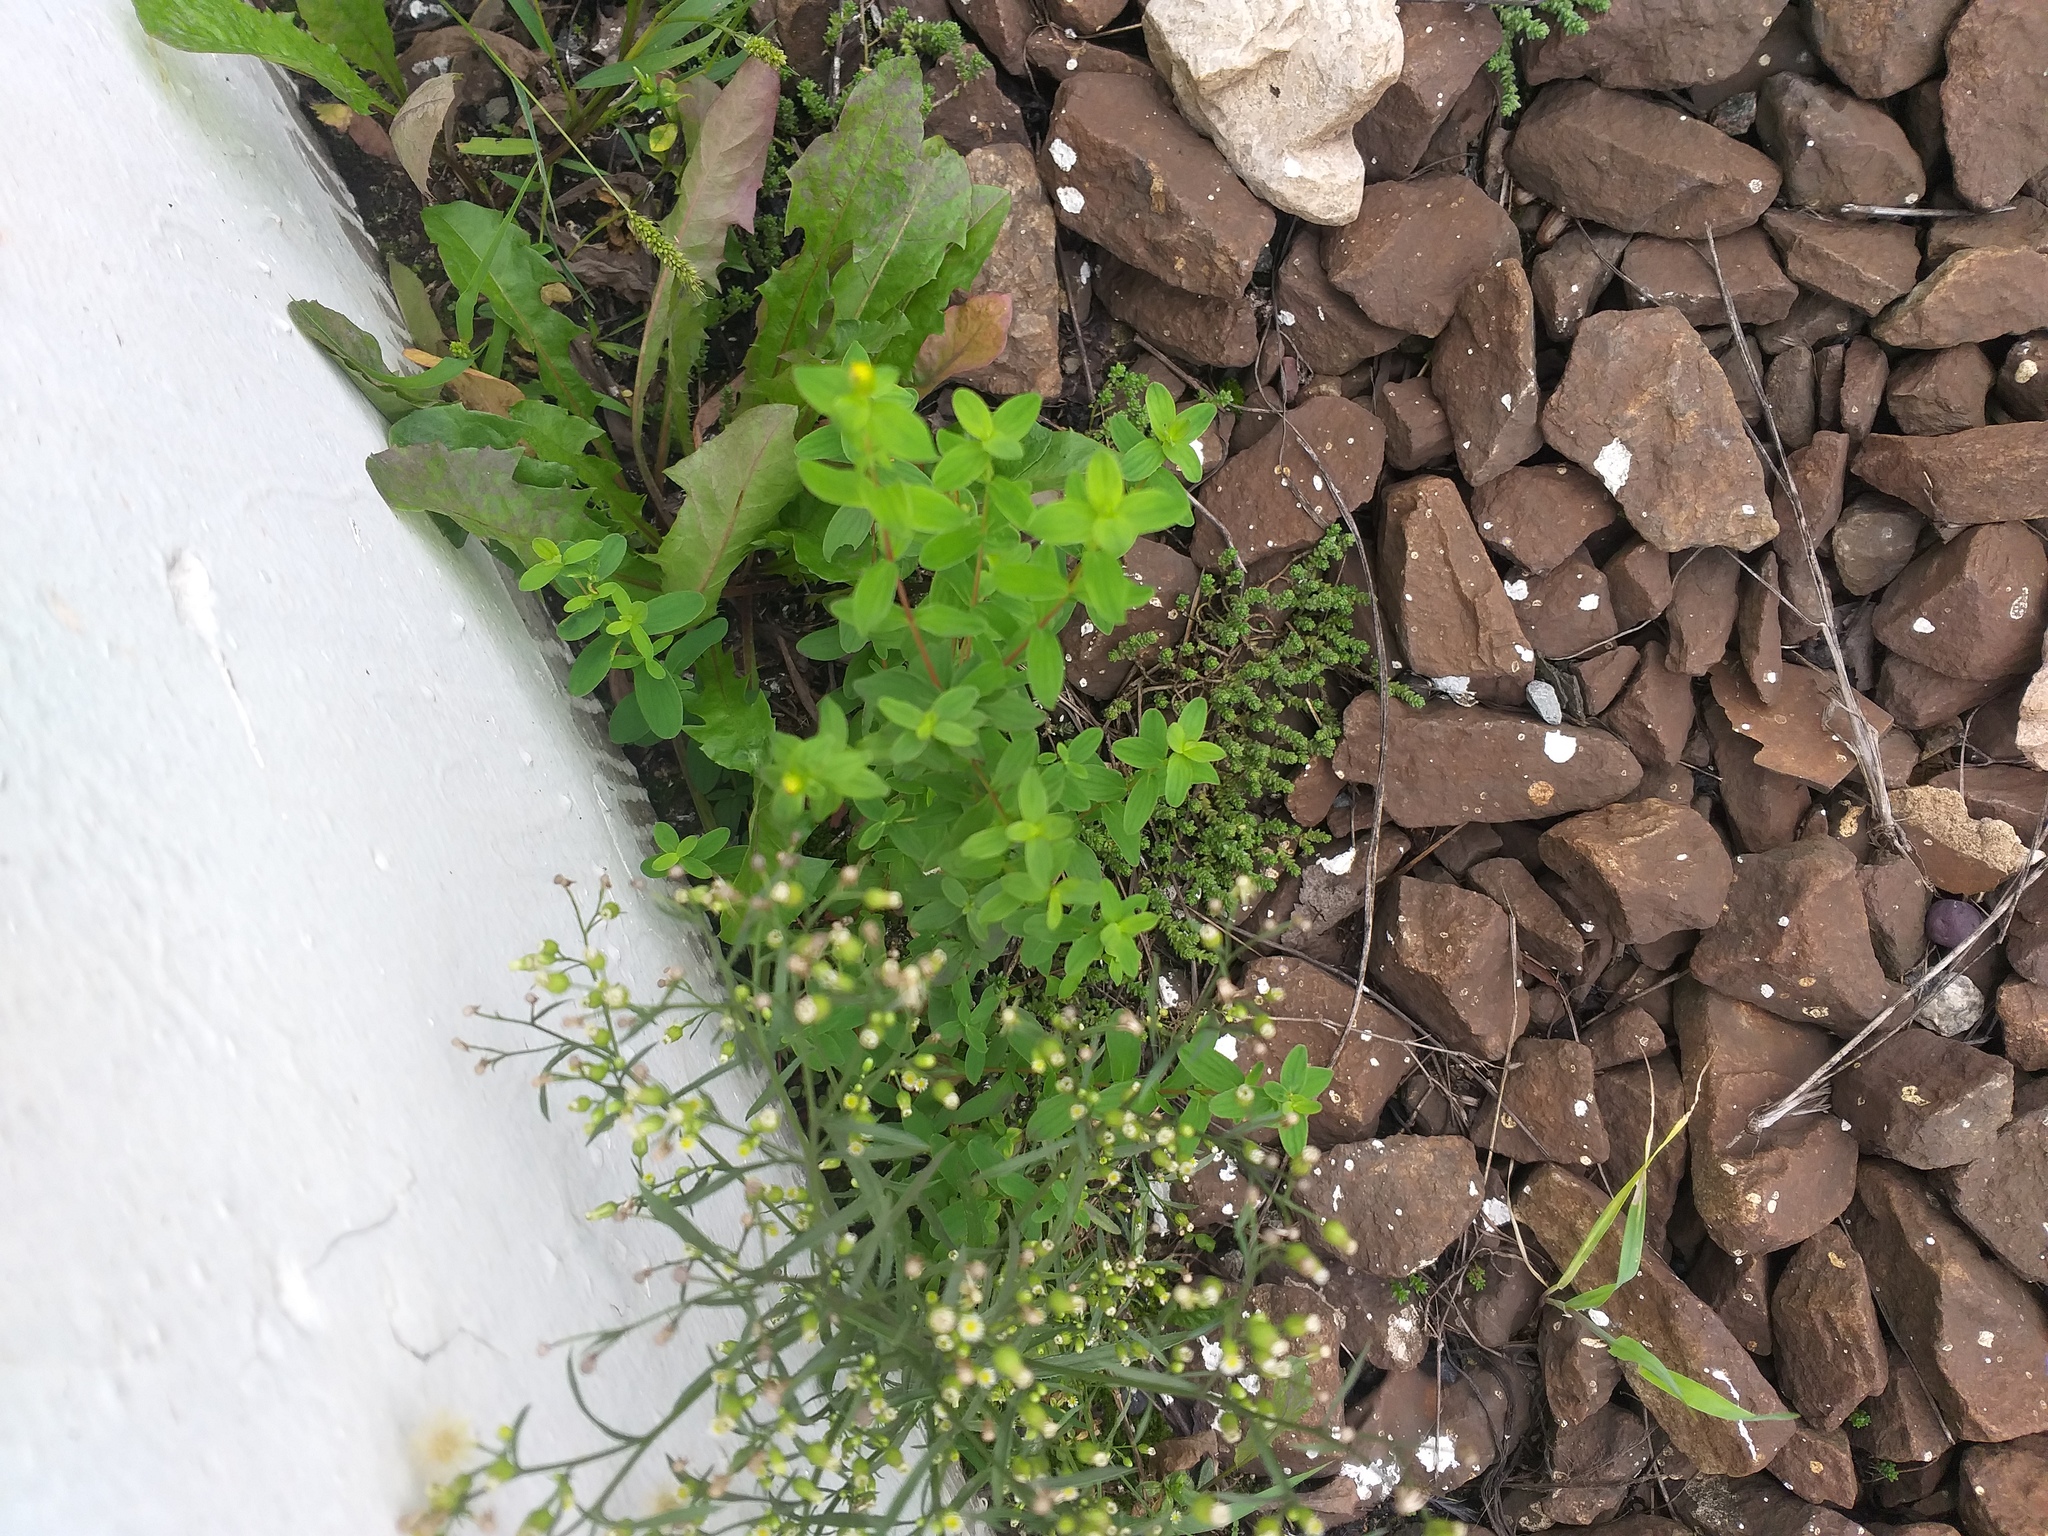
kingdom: Plantae
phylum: Tracheophyta
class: Magnoliopsida
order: Malpighiales
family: Hypericaceae
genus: Hypericum
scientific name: Hypericum maculatum
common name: Imperforate st. john's-wort
